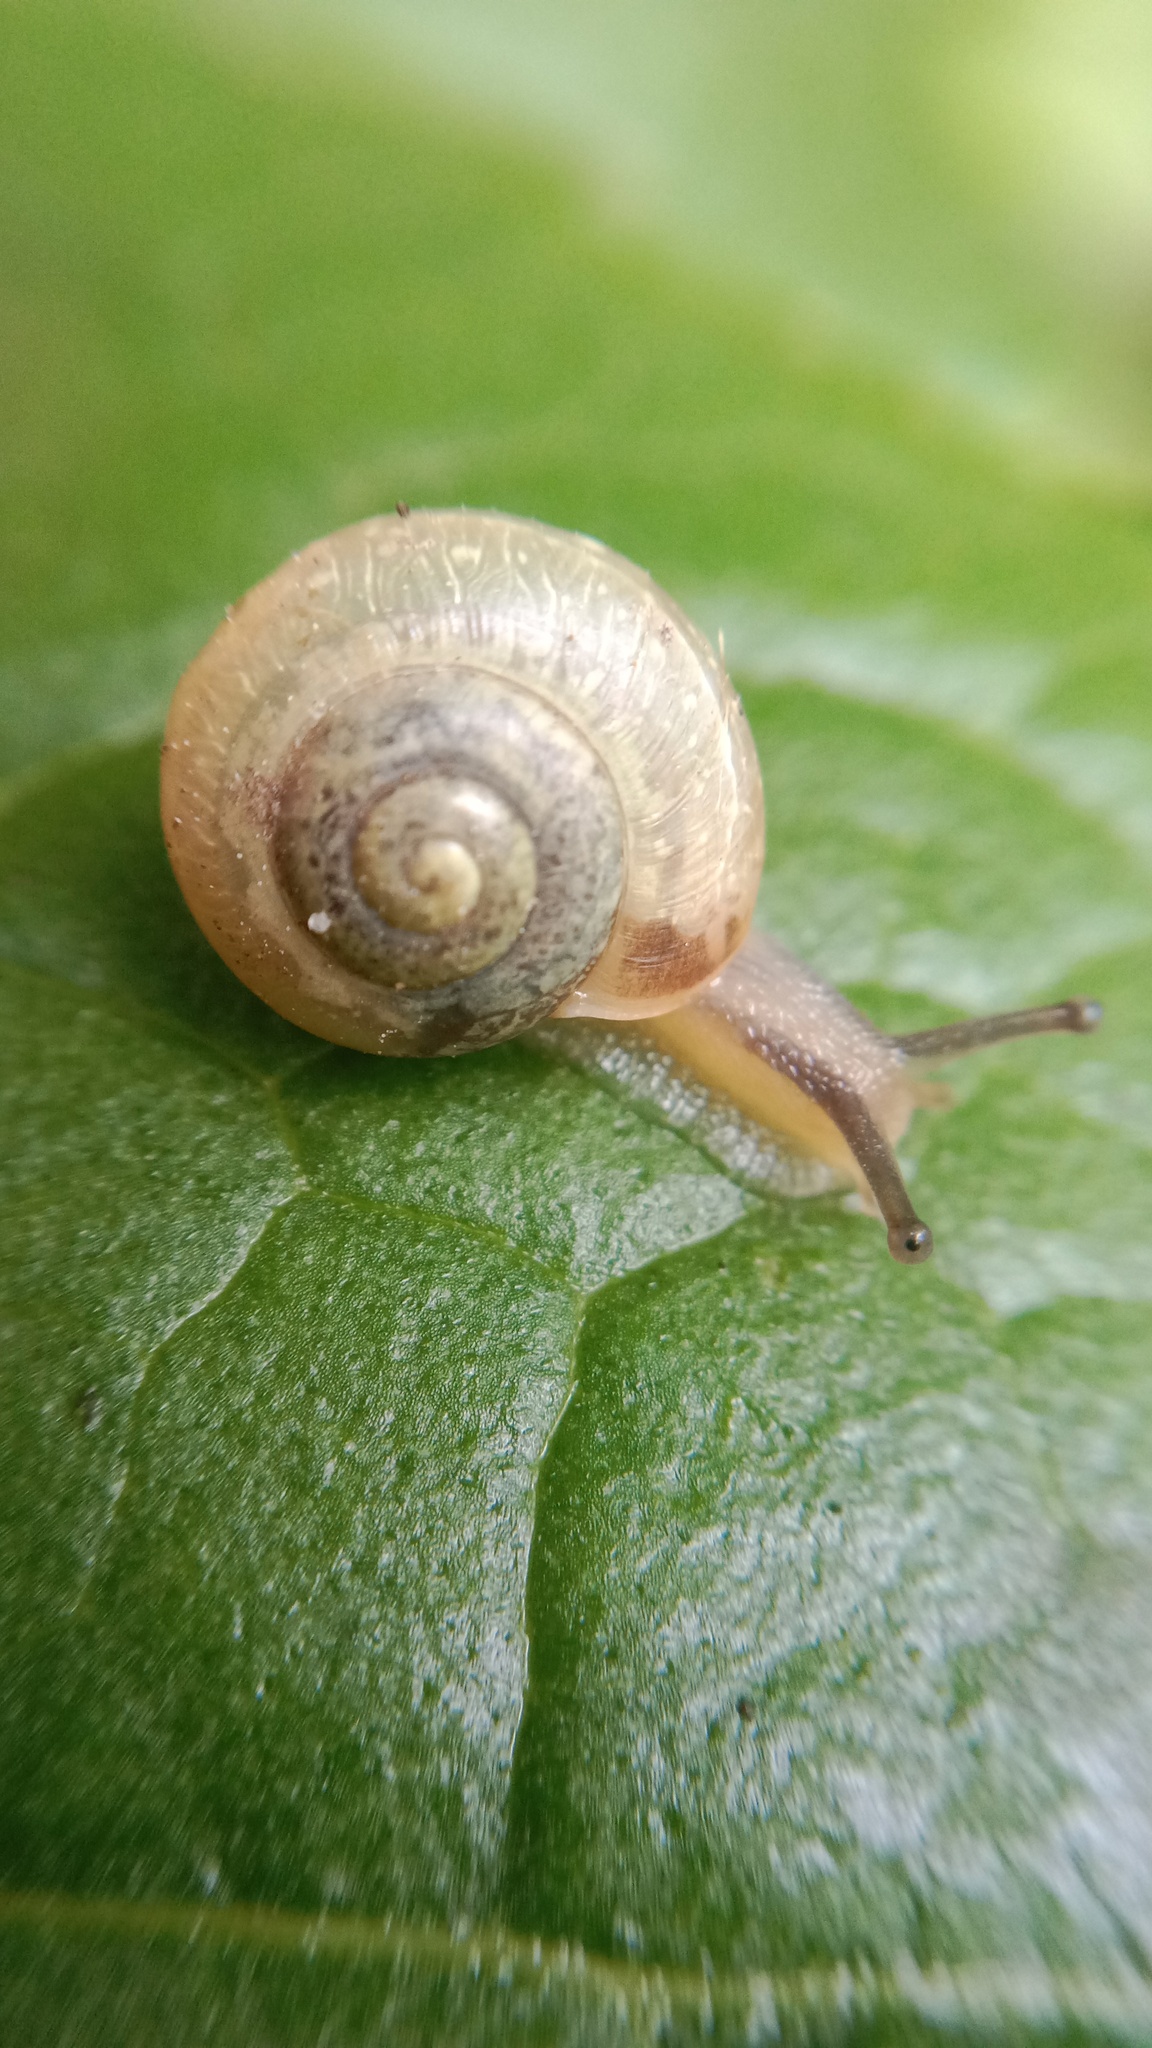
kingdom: Animalia
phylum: Mollusca
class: Gastropoda
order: Stylommatophora
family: Camaenidae
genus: Fruticicola
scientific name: Fruticicola fruticum
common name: Bush snail
